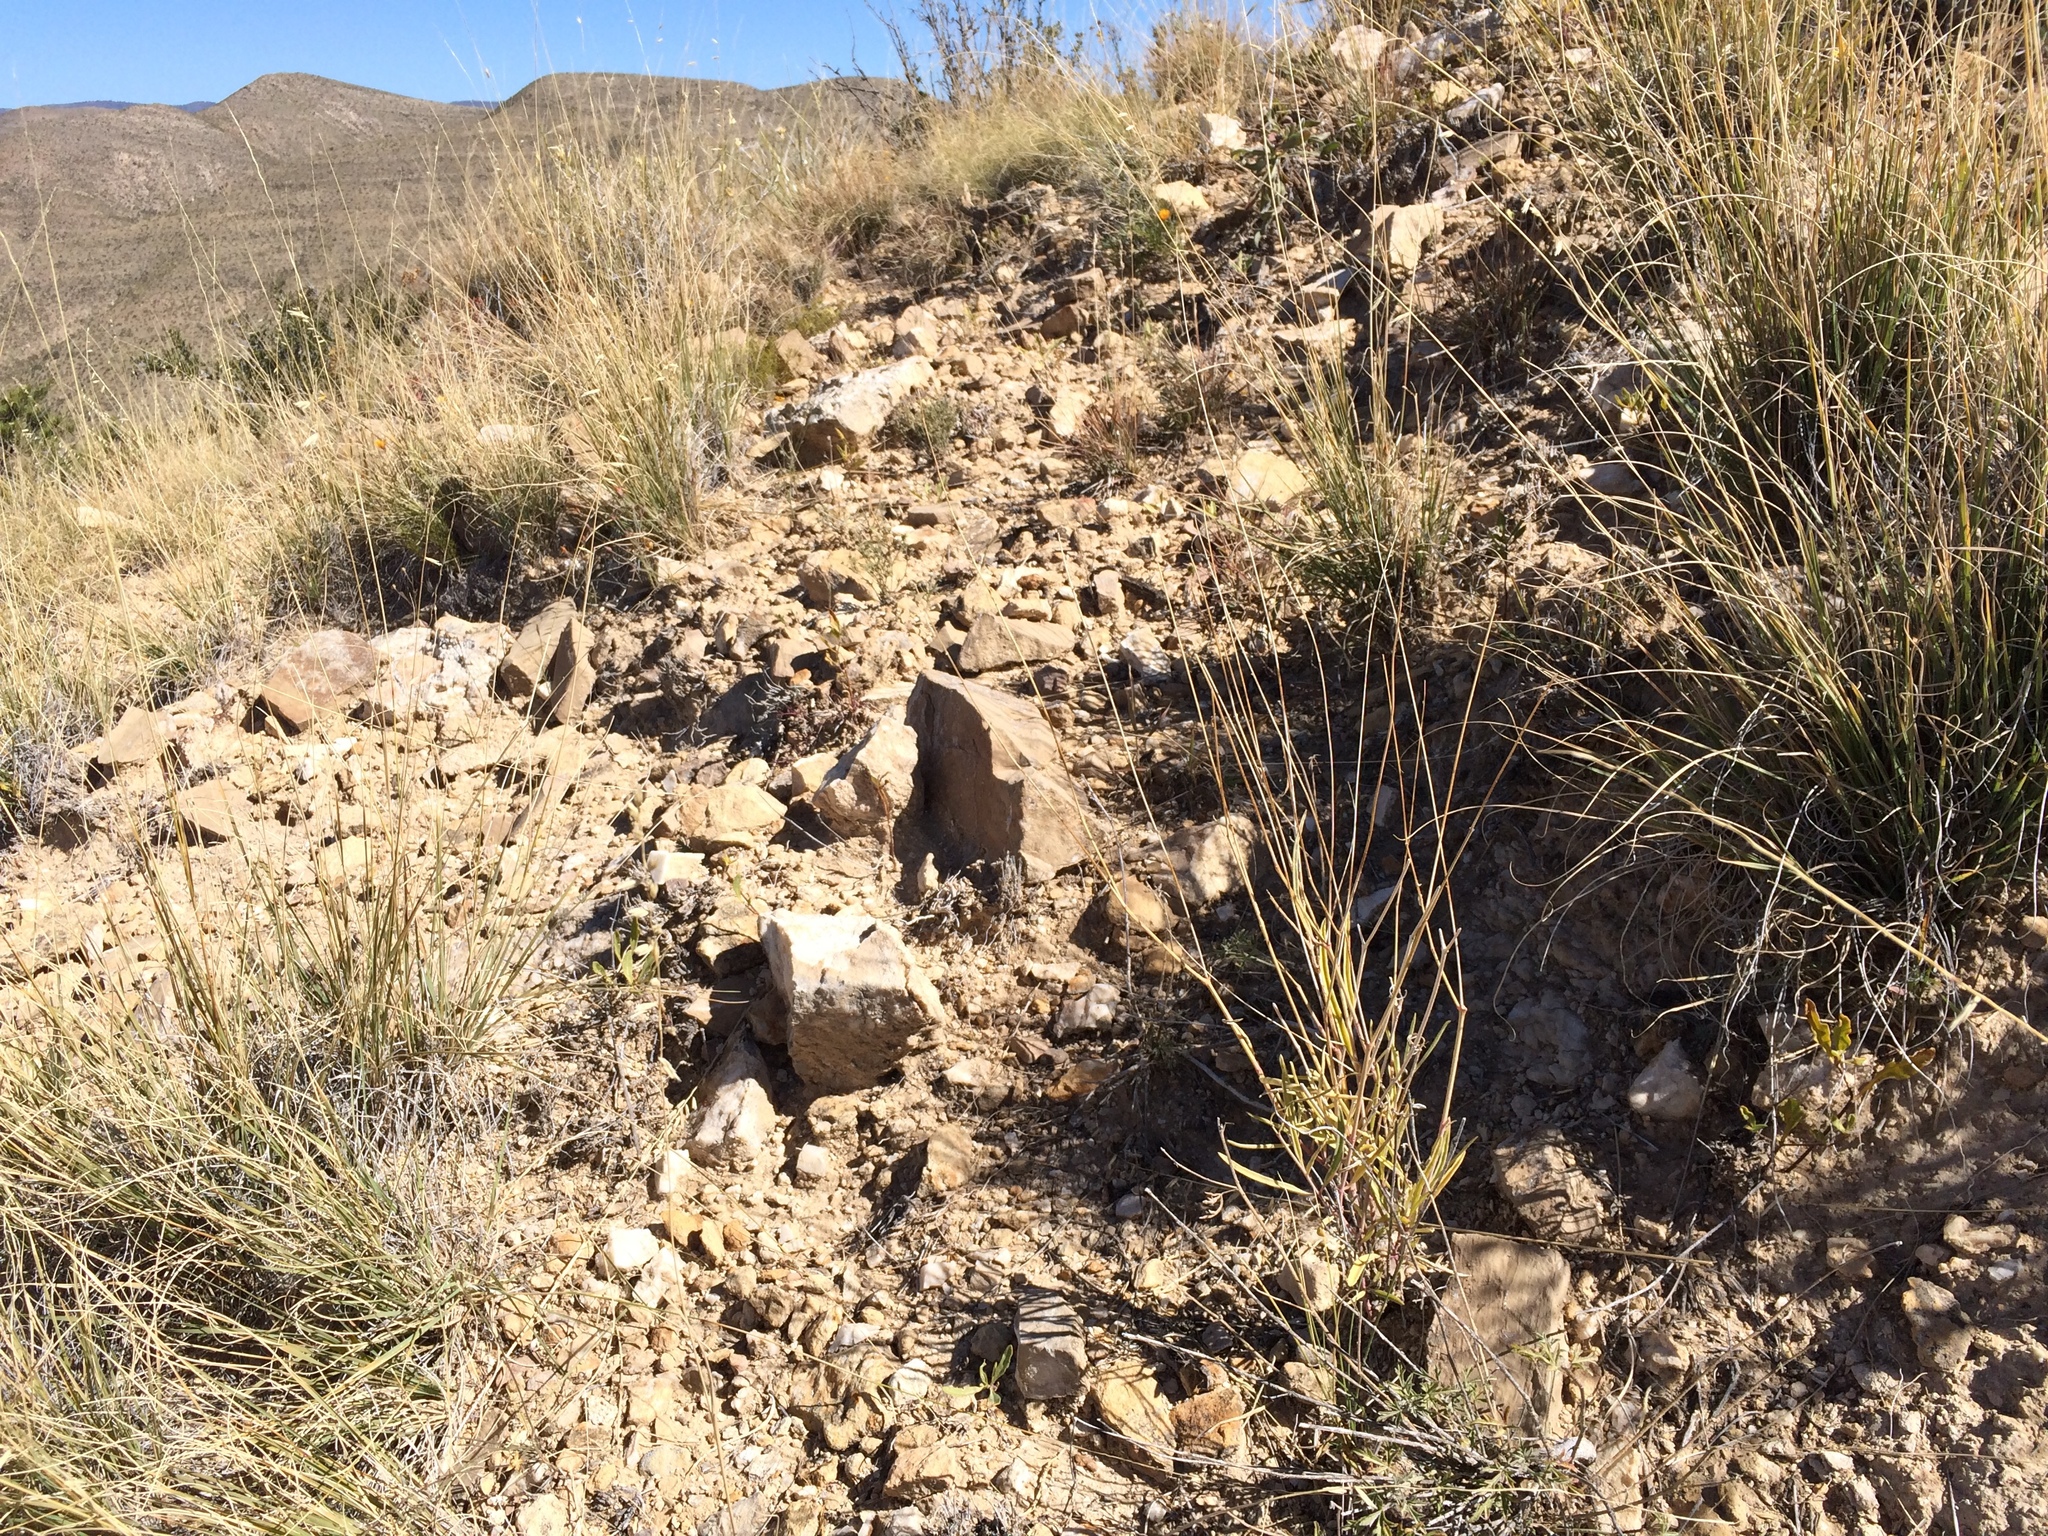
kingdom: Plantae
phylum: Tracheophyta
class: Magnoliopsida
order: Caryophyllales
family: Nyctaginaceae
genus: Cyphomeris
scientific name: Cyphomeris gypsophiloides
